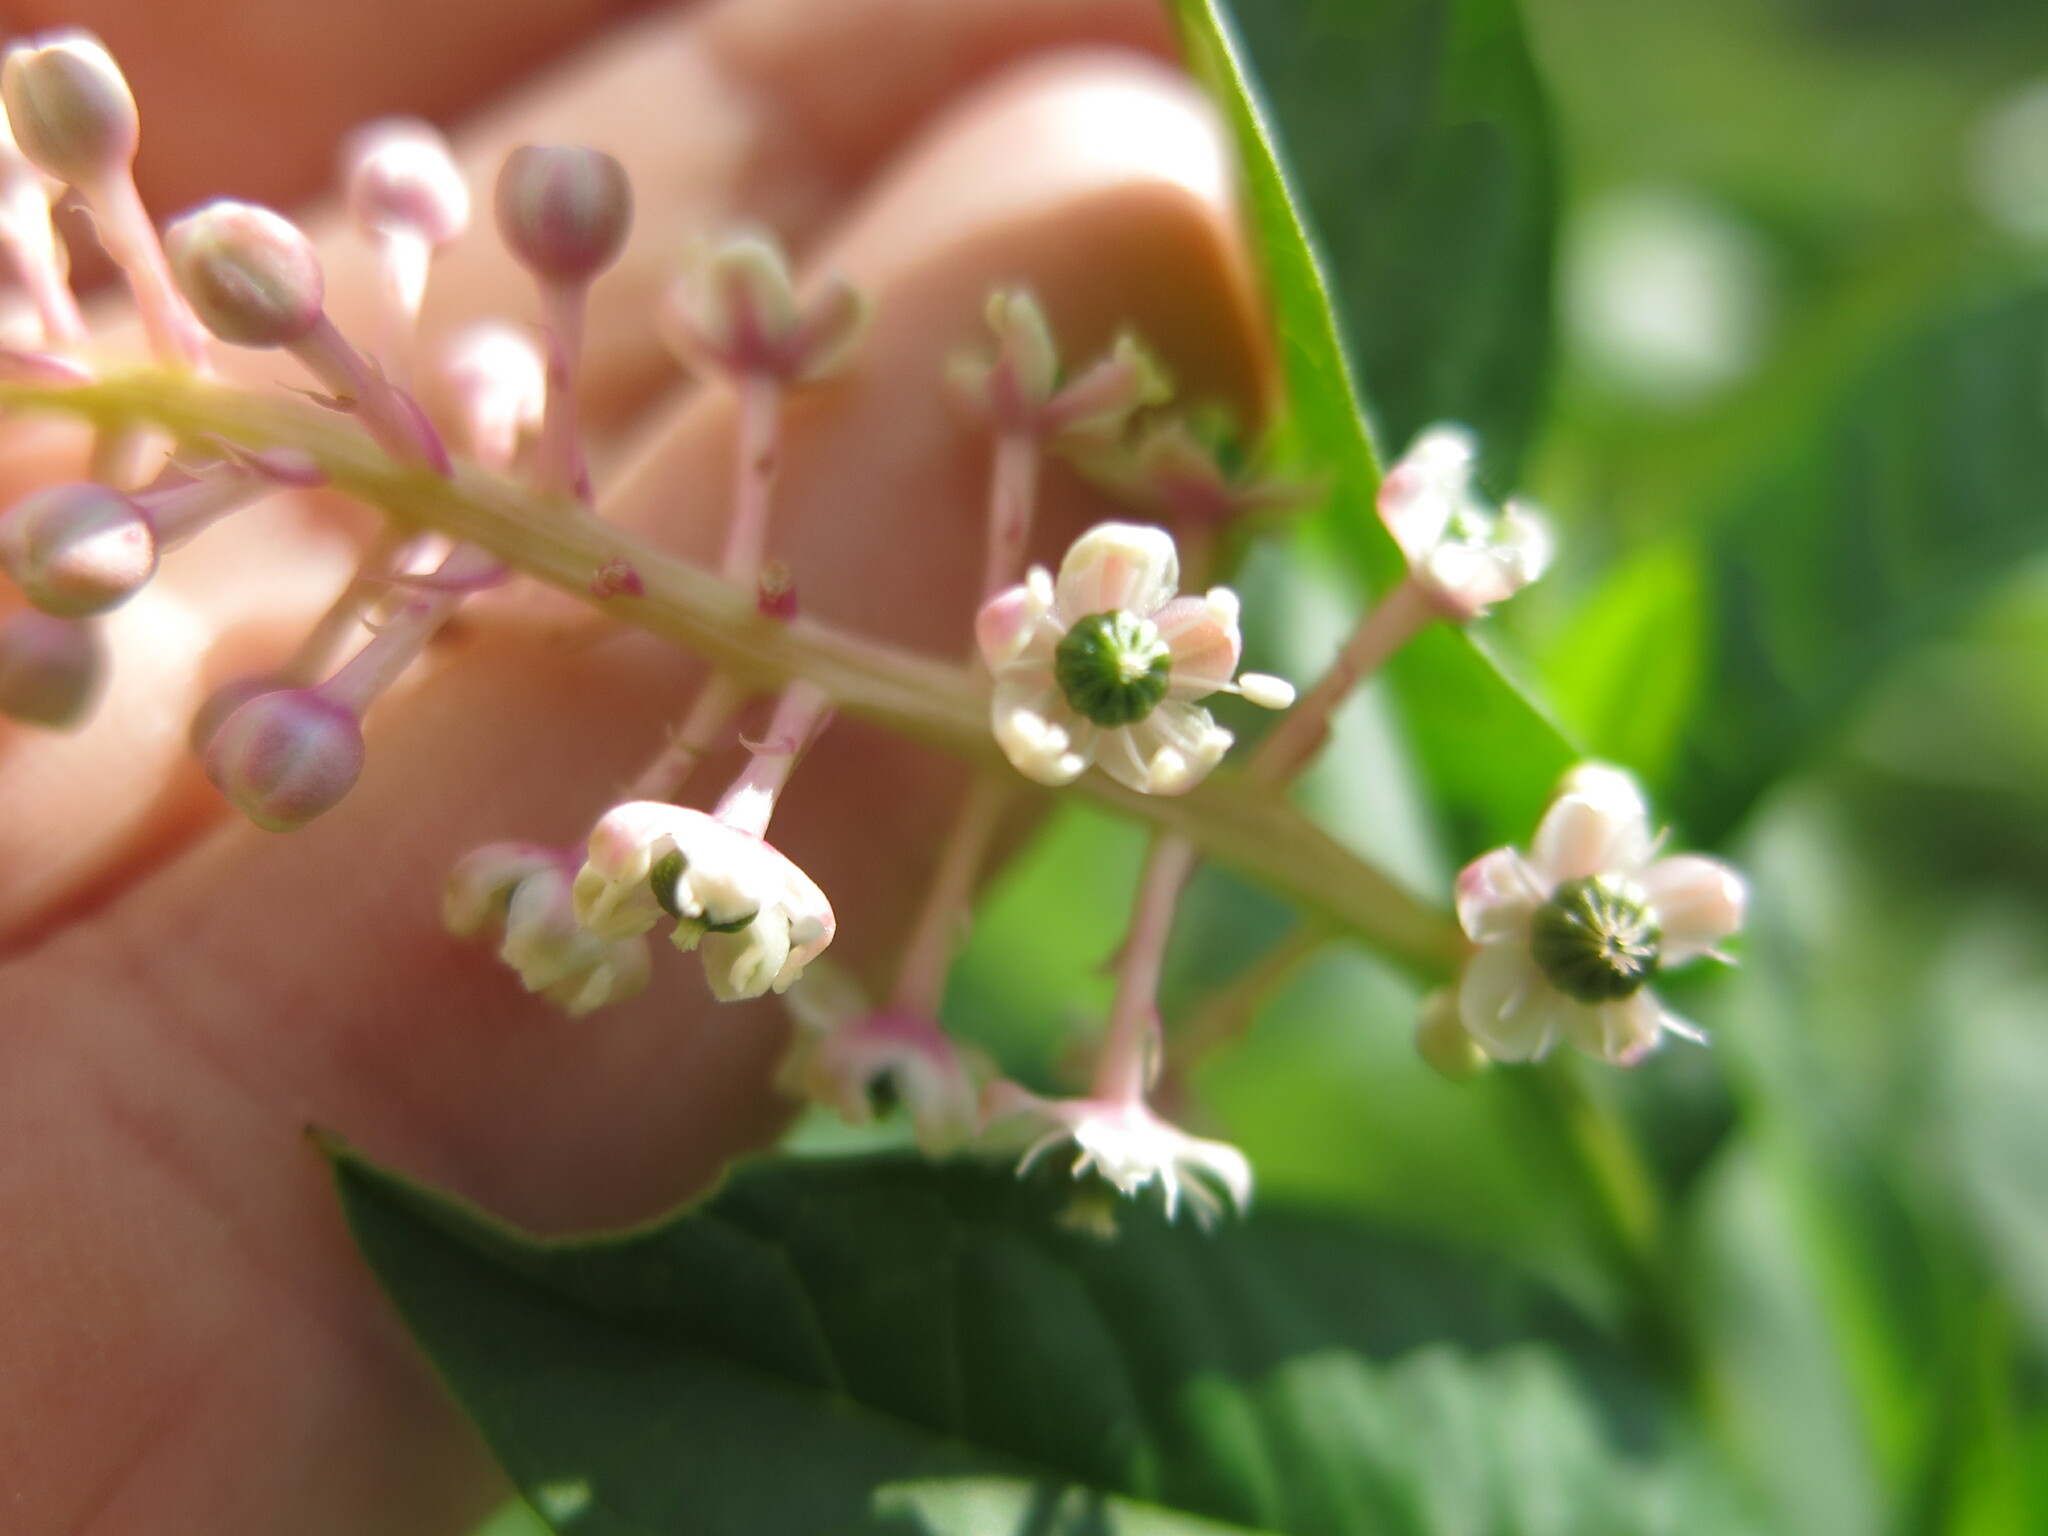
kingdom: Plantae
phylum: Tracheophyta
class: Magnoliopsida
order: Caryophyllales
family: Phytolaccaceae
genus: Phytolacca
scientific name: Phytolacca americana
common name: American pokeweed
